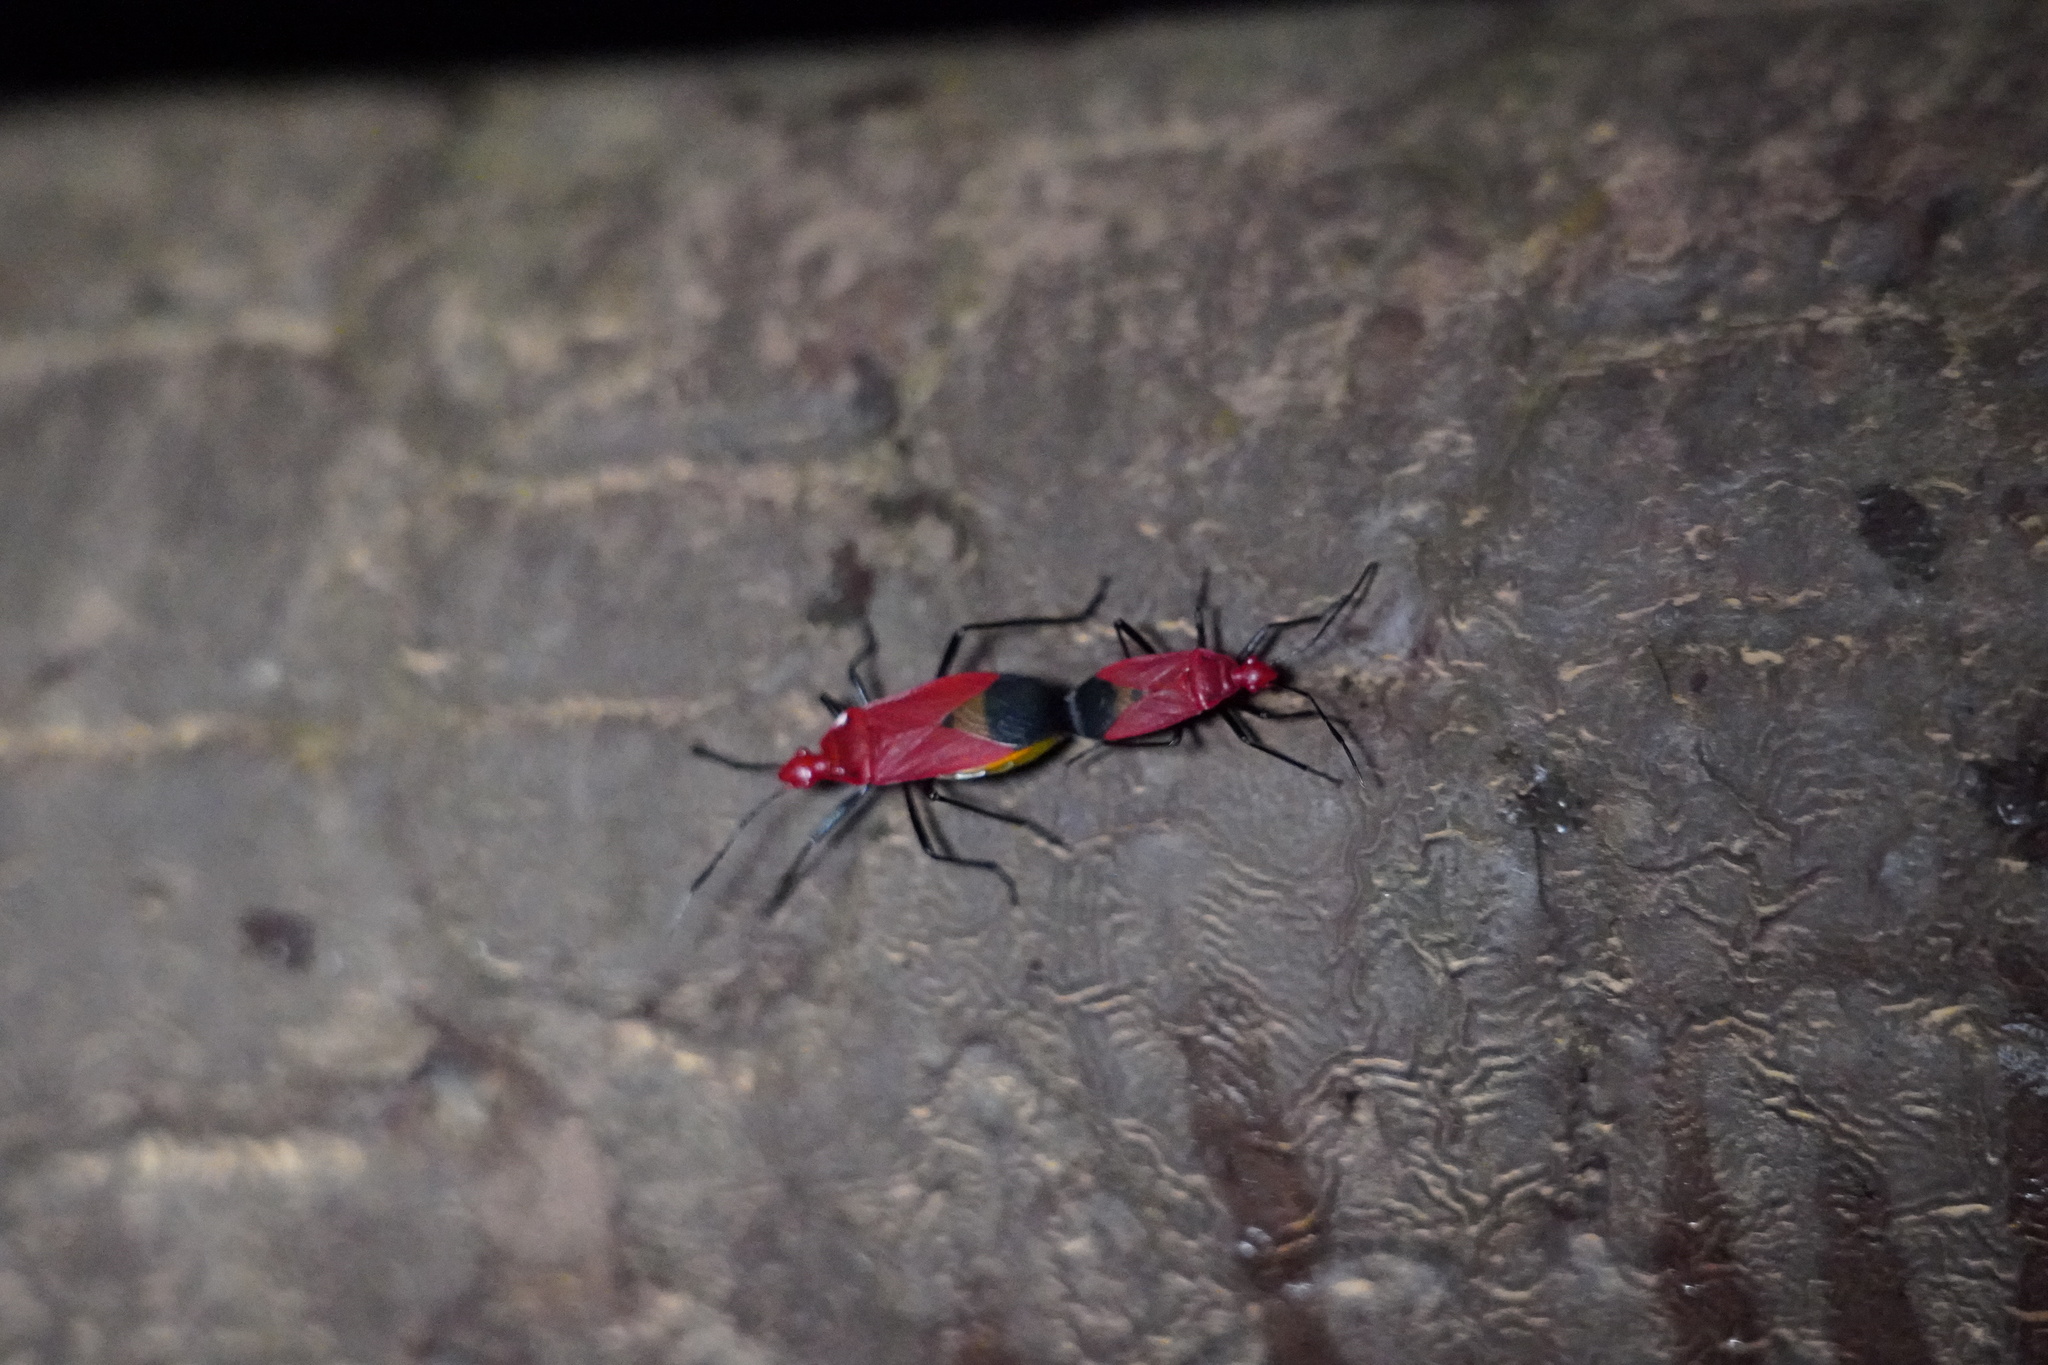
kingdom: Animalia
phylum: Arthropoda
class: Insecta
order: Hemiptera
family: Pyrrhocoridae
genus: Dindymus
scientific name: Dindymus
